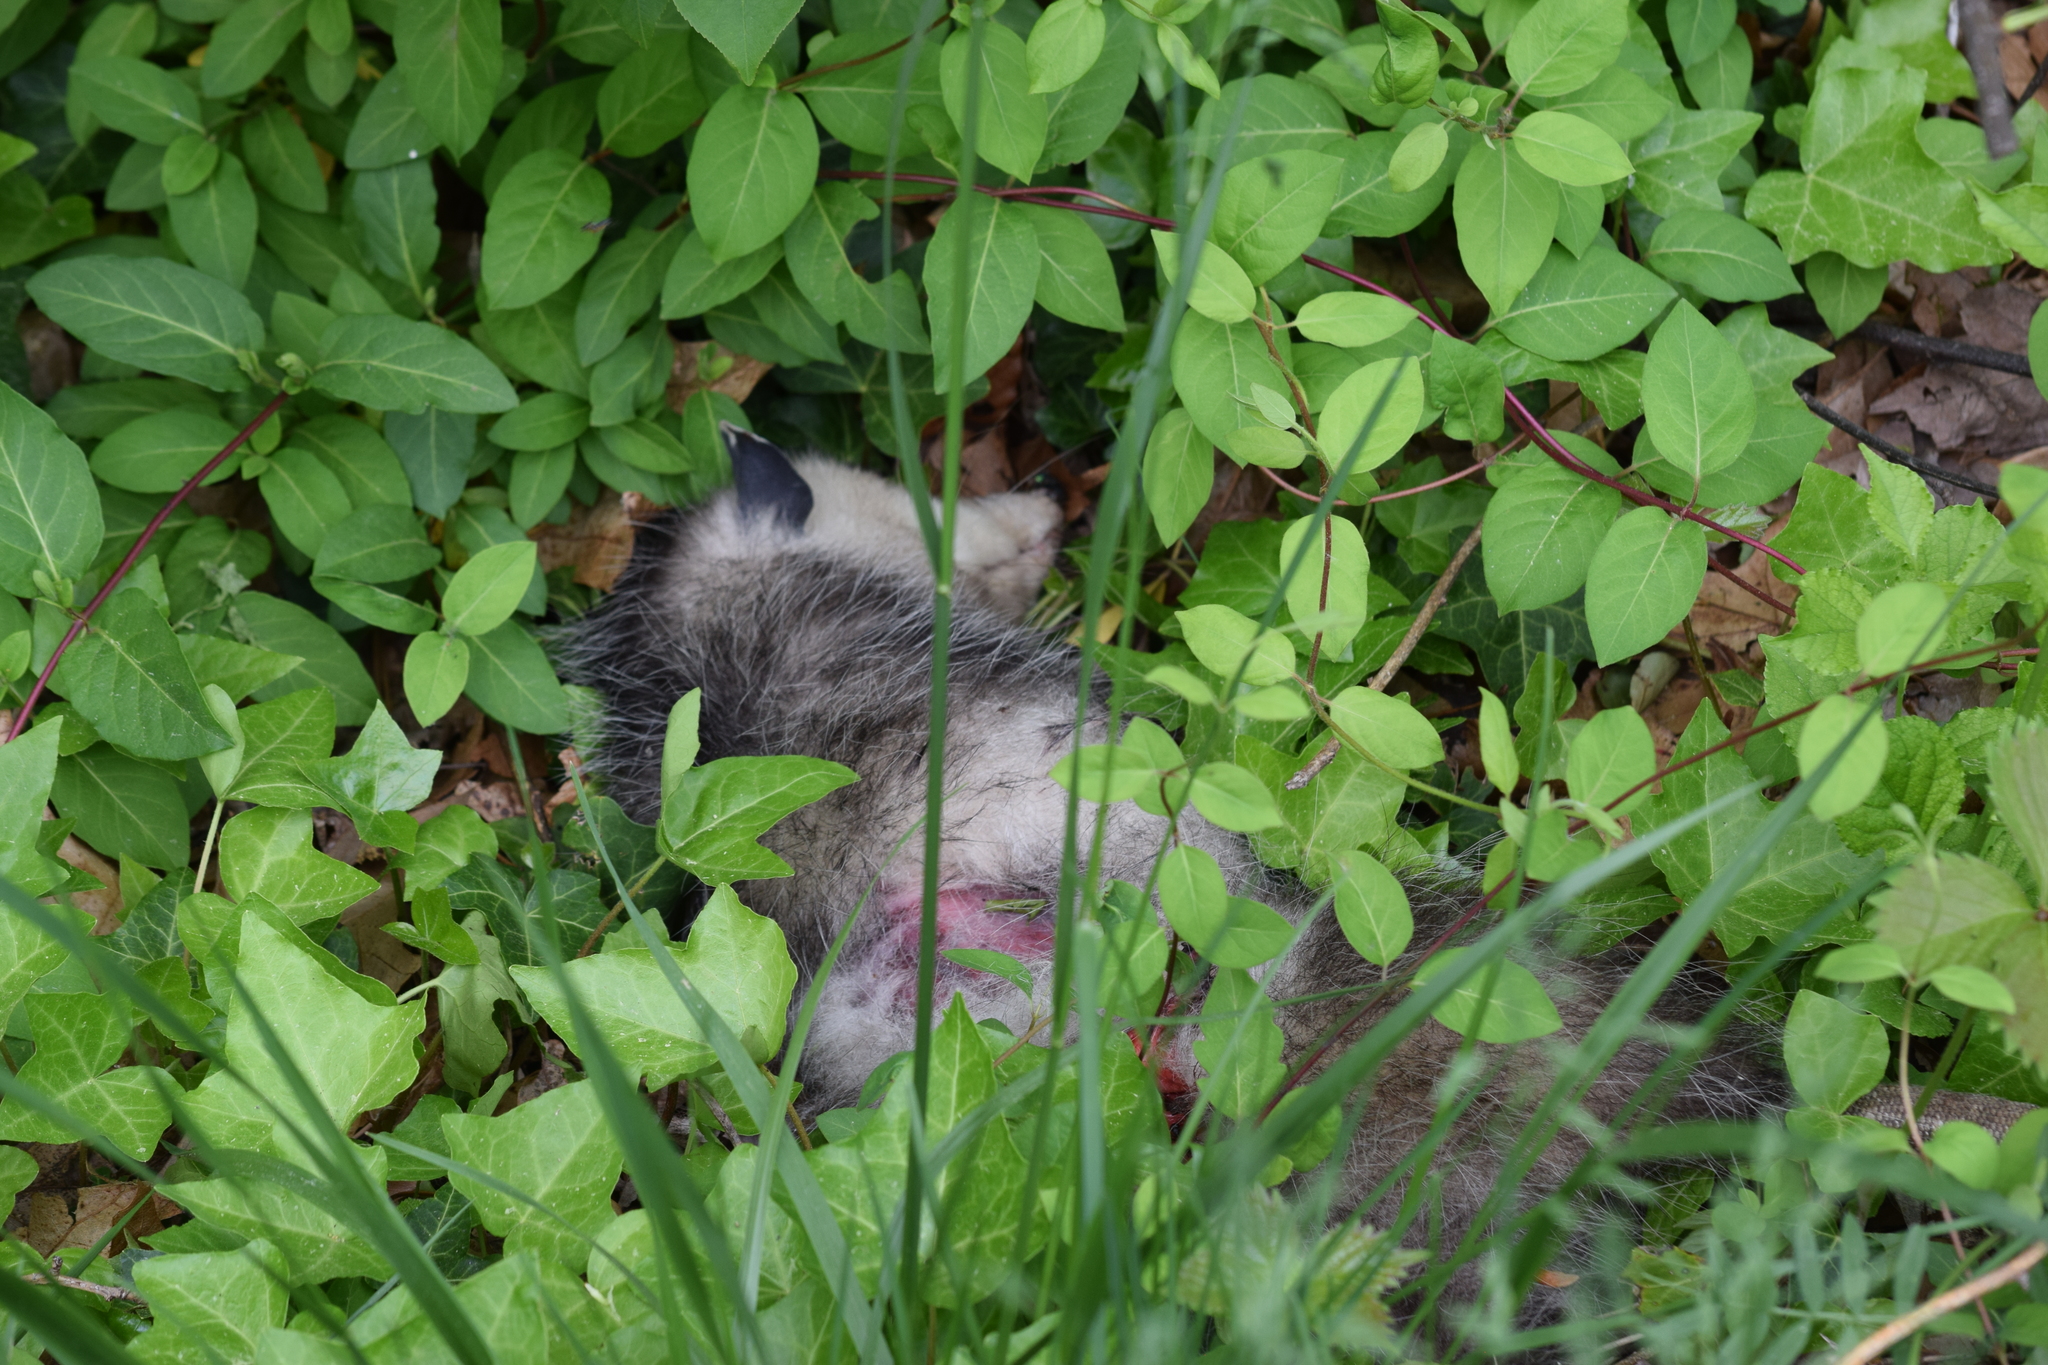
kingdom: Animalia
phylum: Chordata
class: Mammalia
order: Didelphimorphia
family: Didelphidae
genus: Didelphis
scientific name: Didelphis virginiana
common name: Virginia opossum
